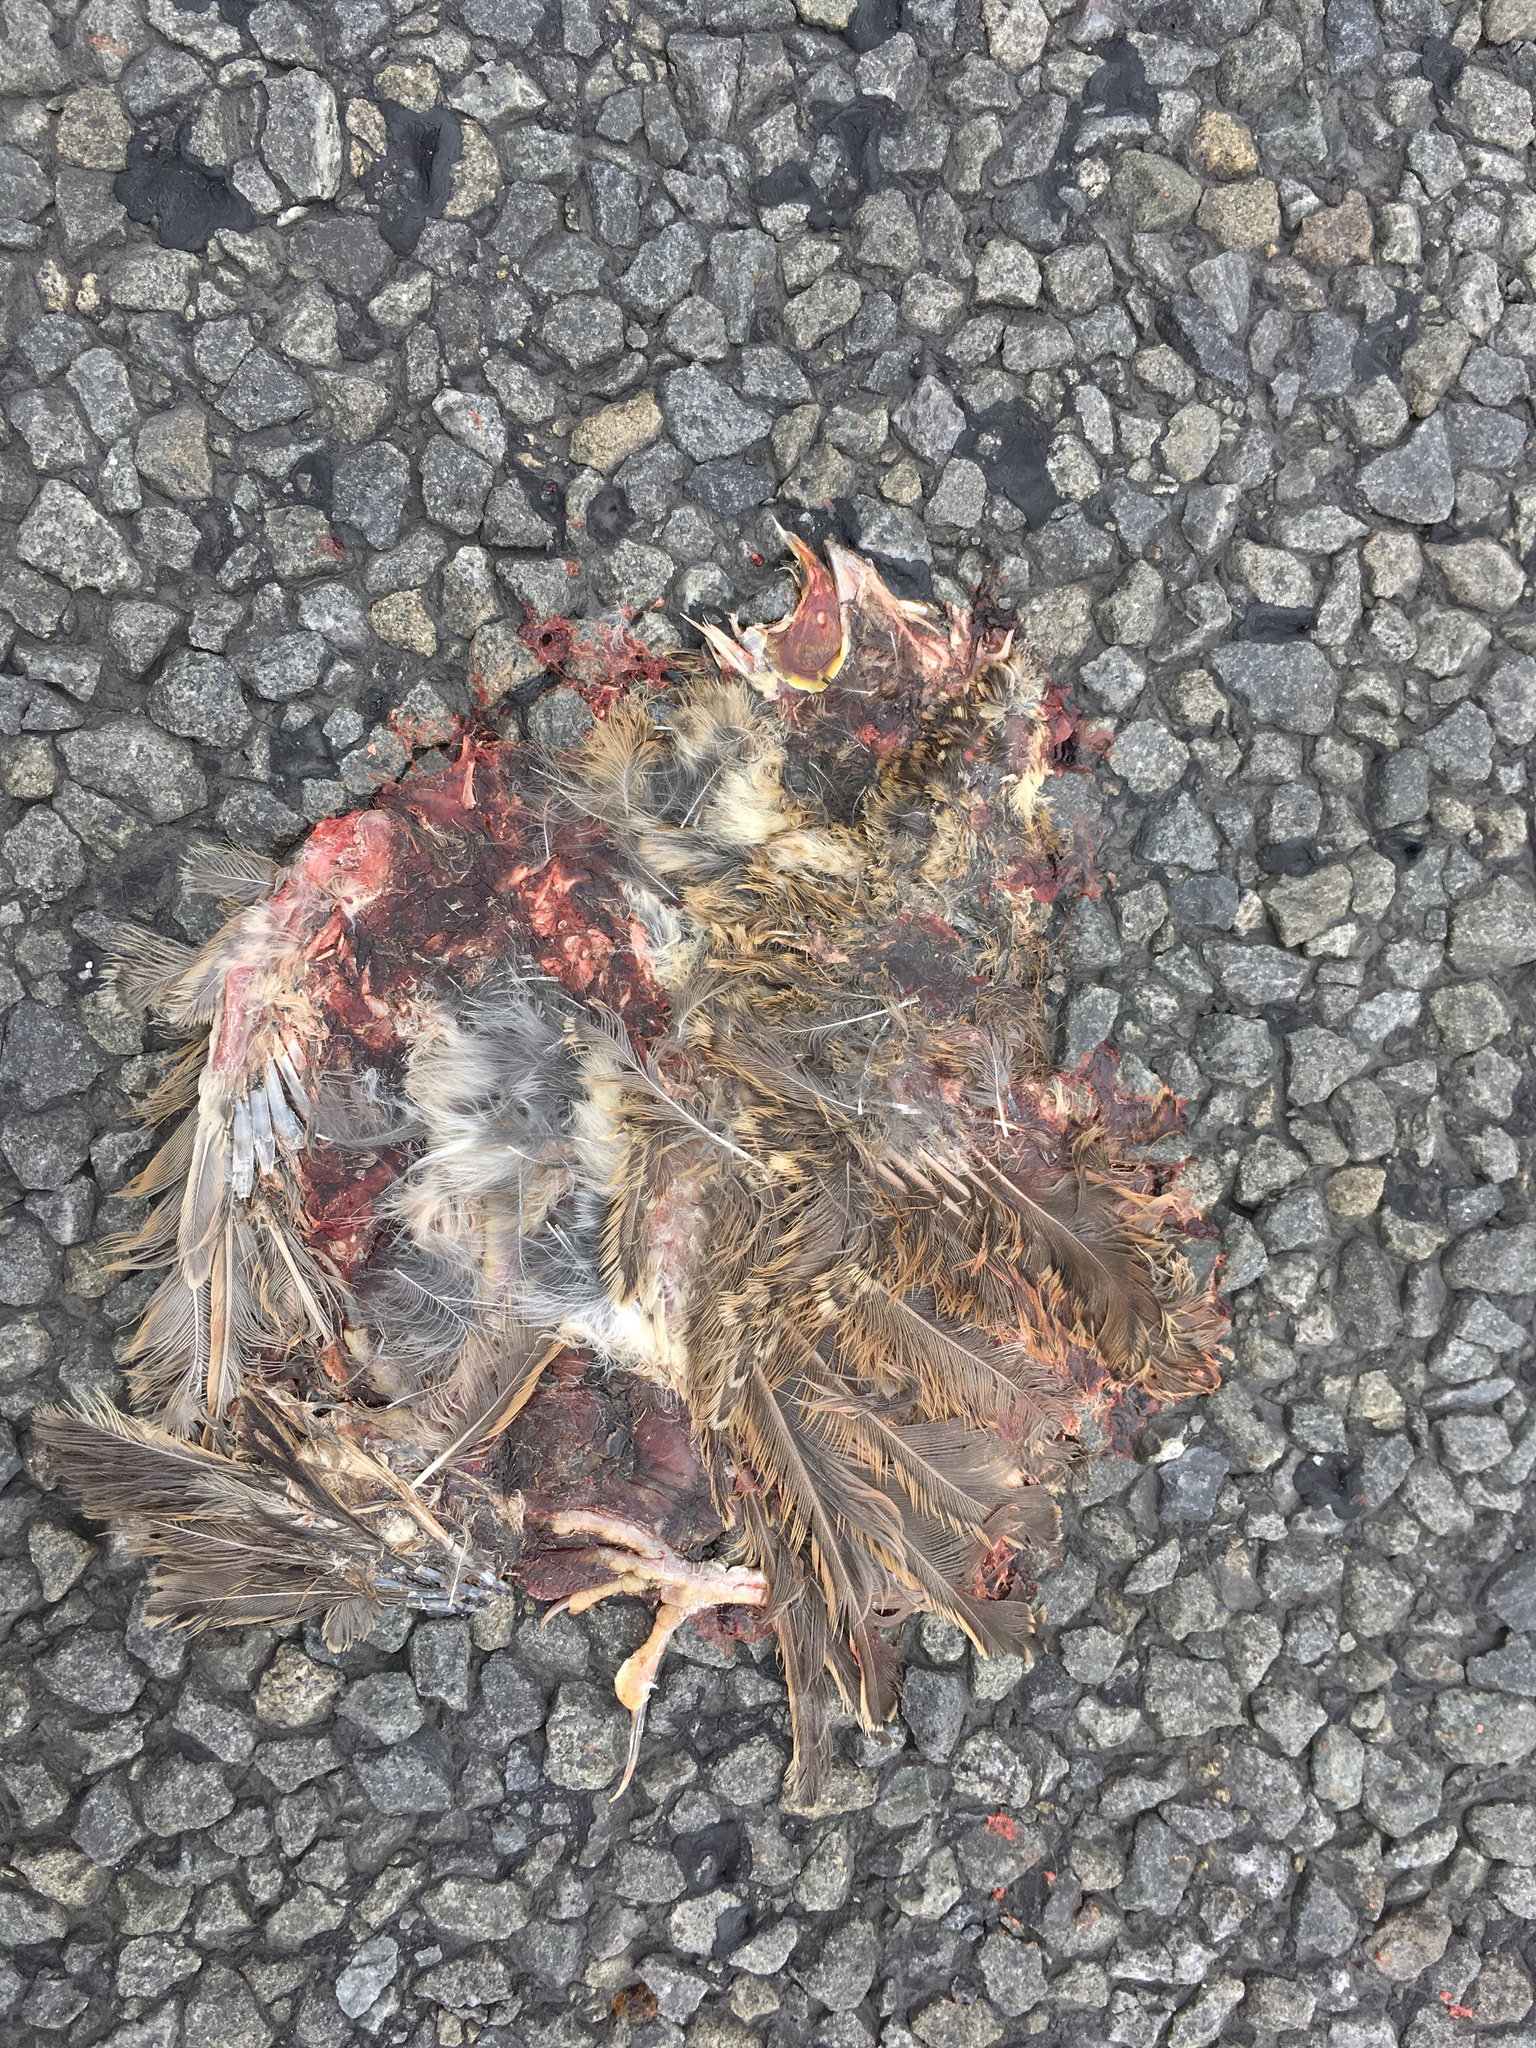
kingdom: Animalia
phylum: Chordata
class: Aves
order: Passeriformes
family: Passeridae
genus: Passer
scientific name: Passer domesticus
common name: House sparrow
